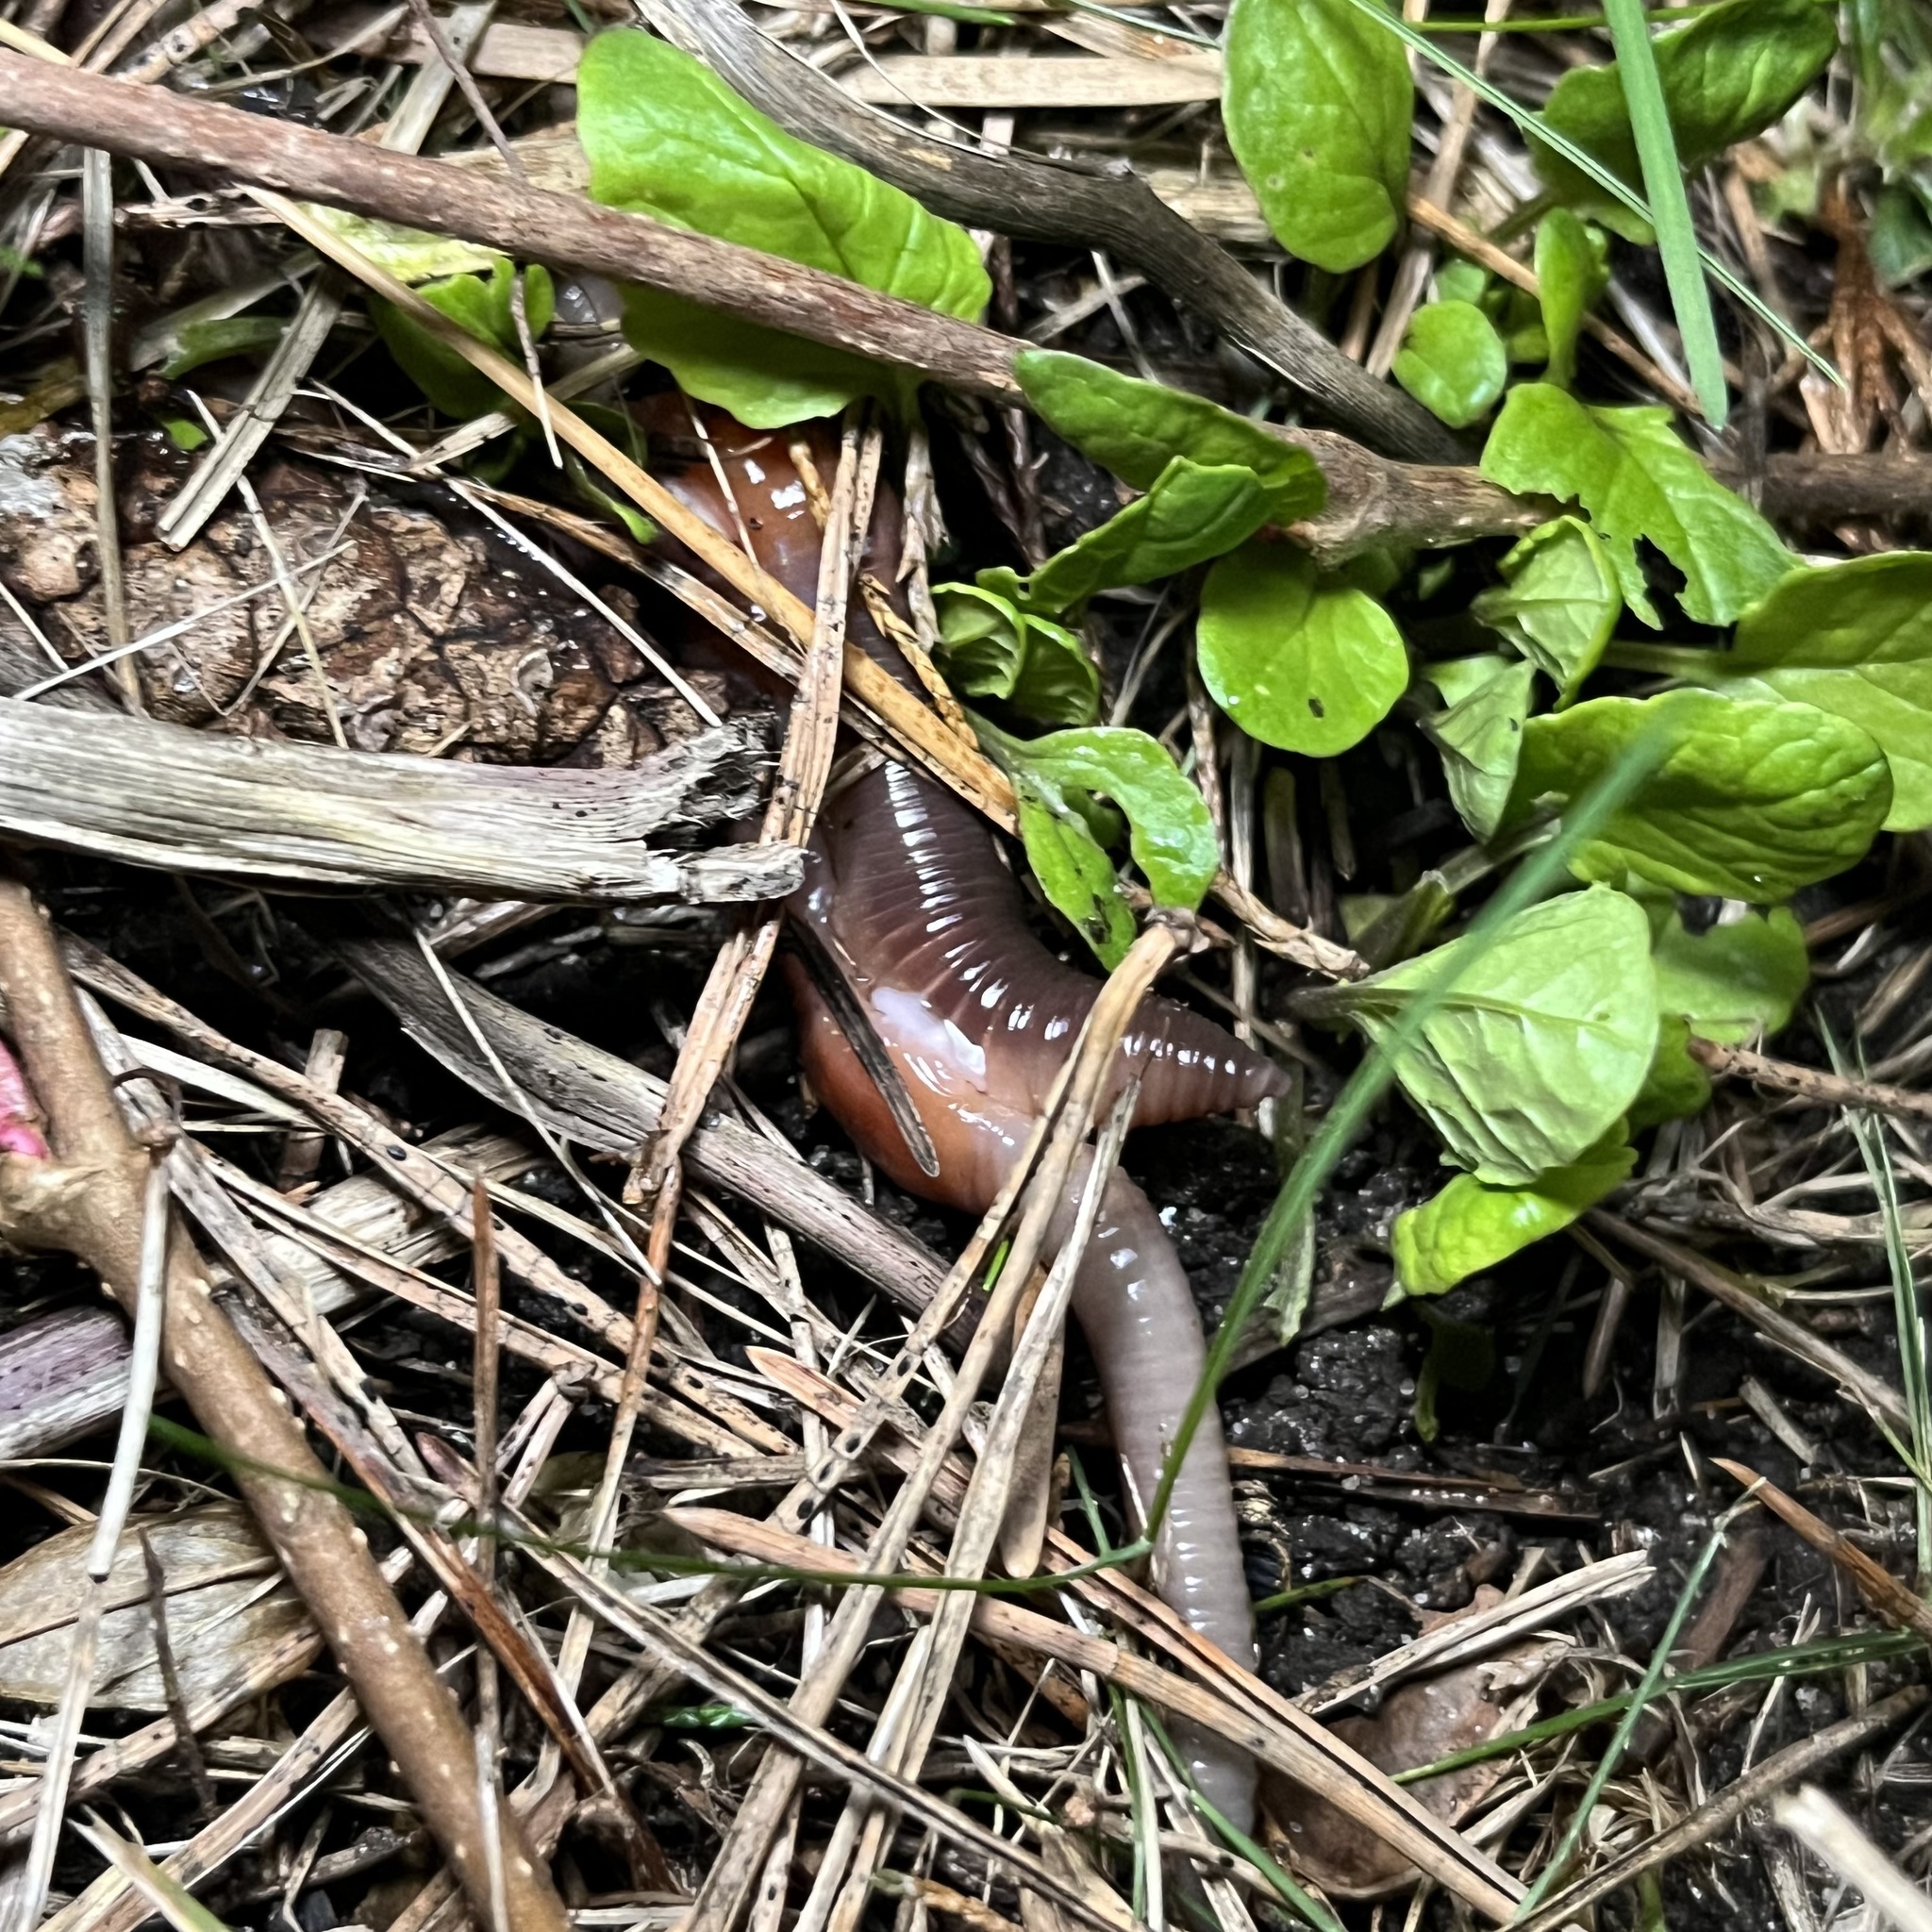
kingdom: Animalia
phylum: Annelida
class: Clitellata
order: Crassiclitellata
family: Lumbricidae
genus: Lumbricus
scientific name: Lumbricus terrestris
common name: Common earthworm
